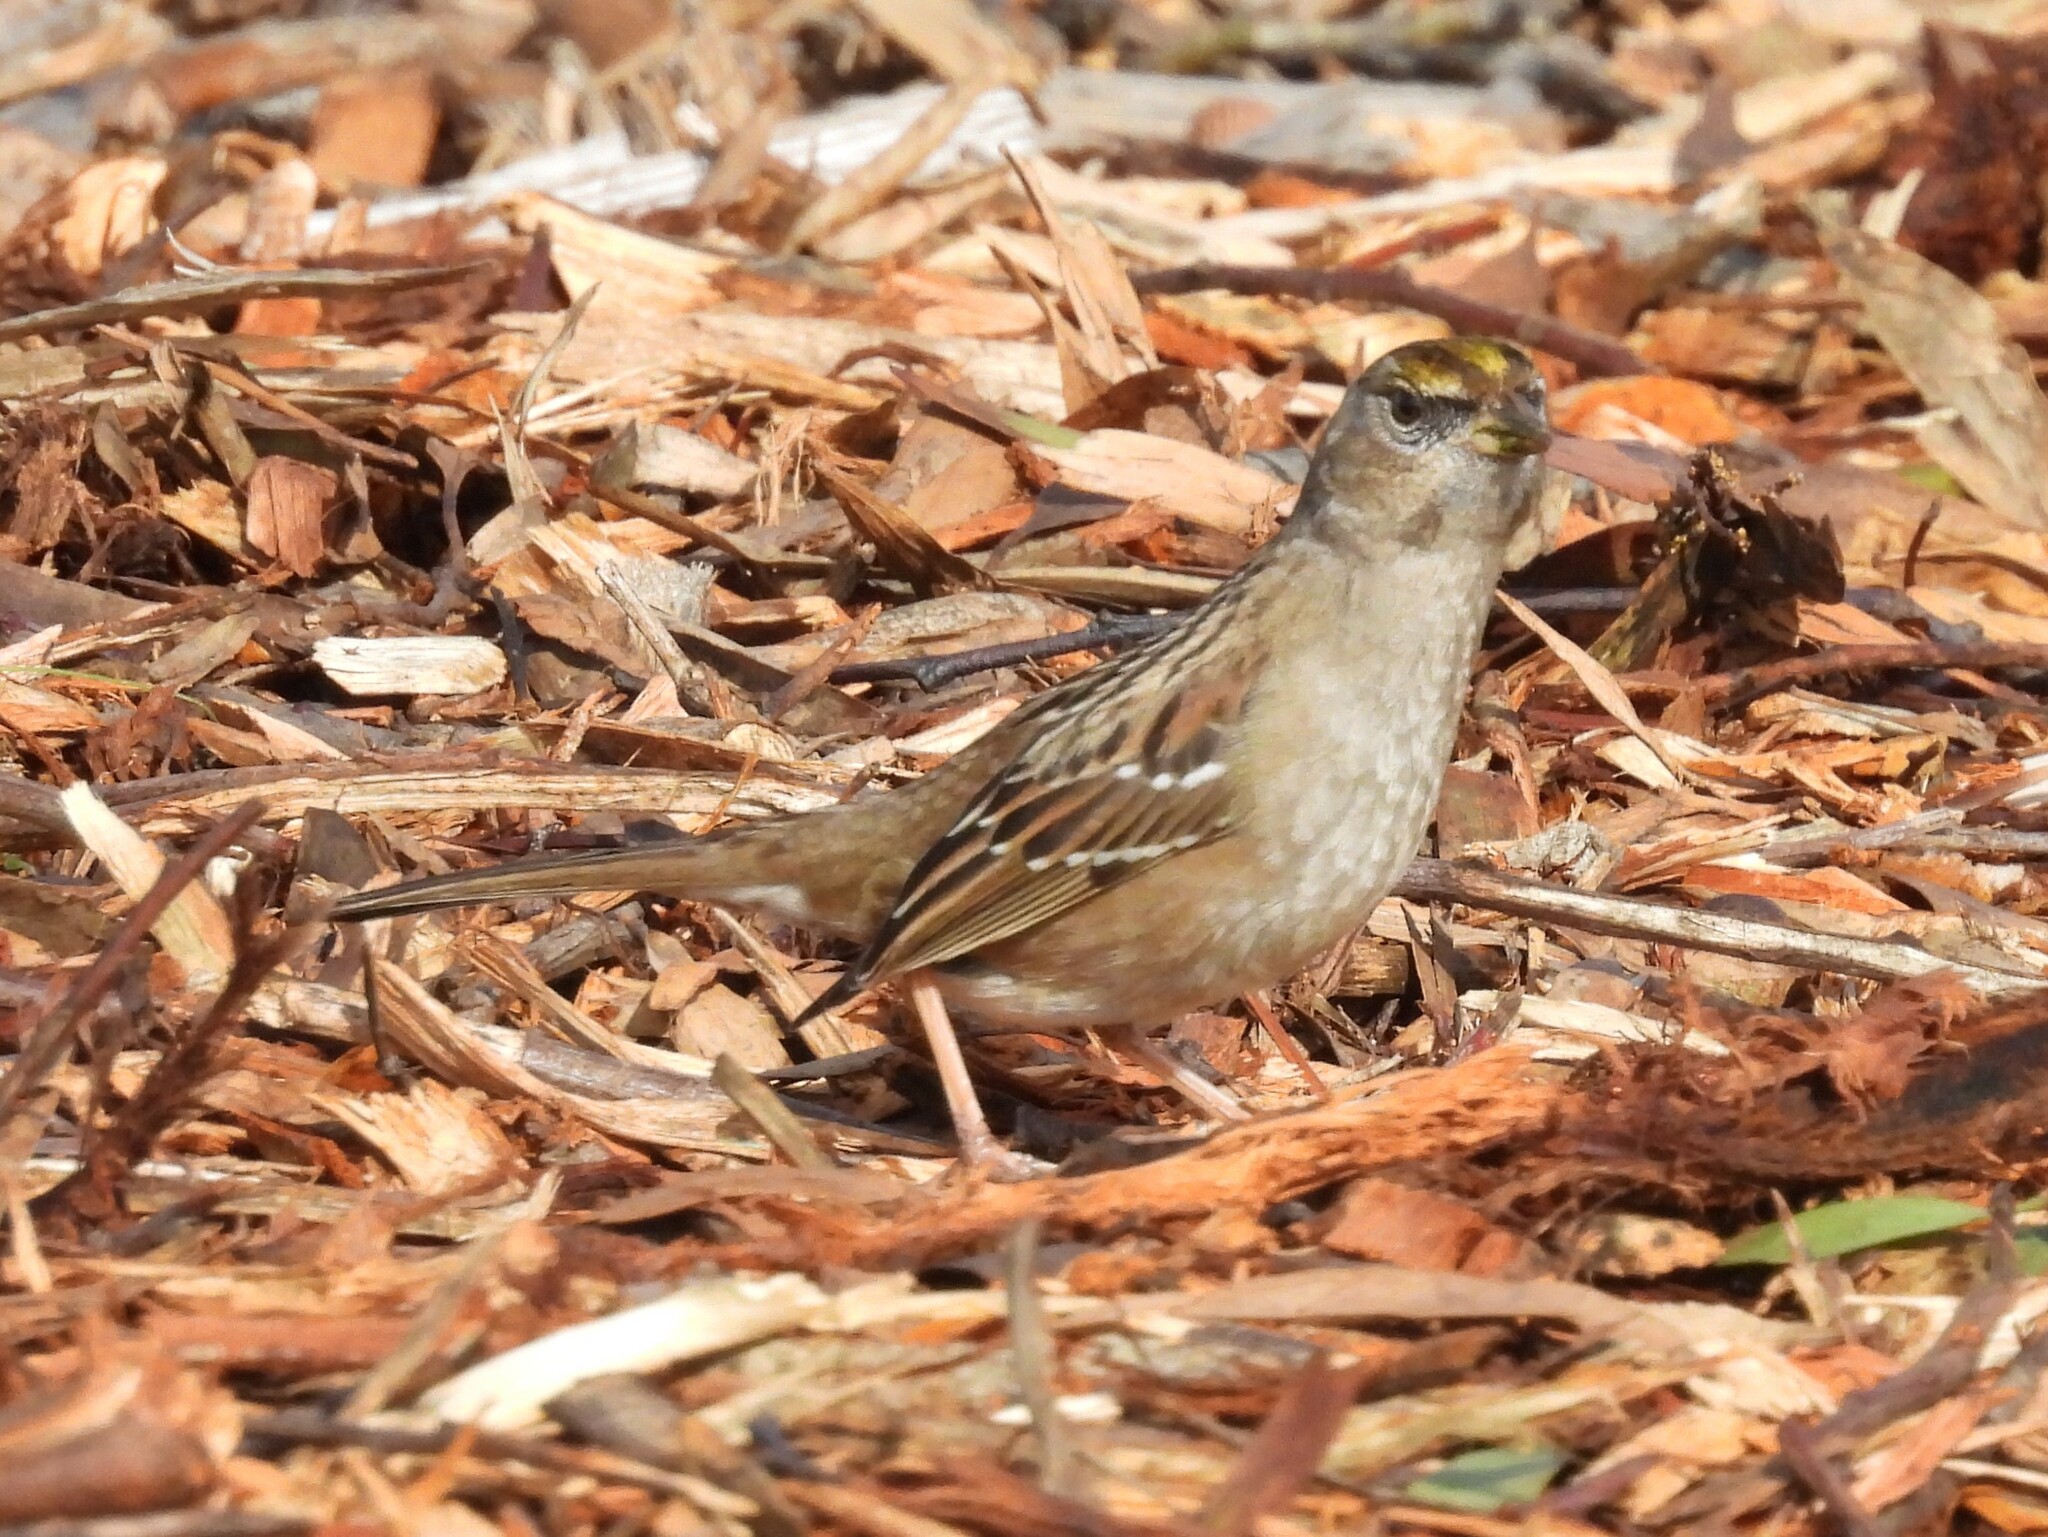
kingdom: Animalia
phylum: Chordata
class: Aves
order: Passeriformes
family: Passerellidae
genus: Zonotrichia
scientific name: Zonotrichia atricapilla
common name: Golden-crowned sparrow
